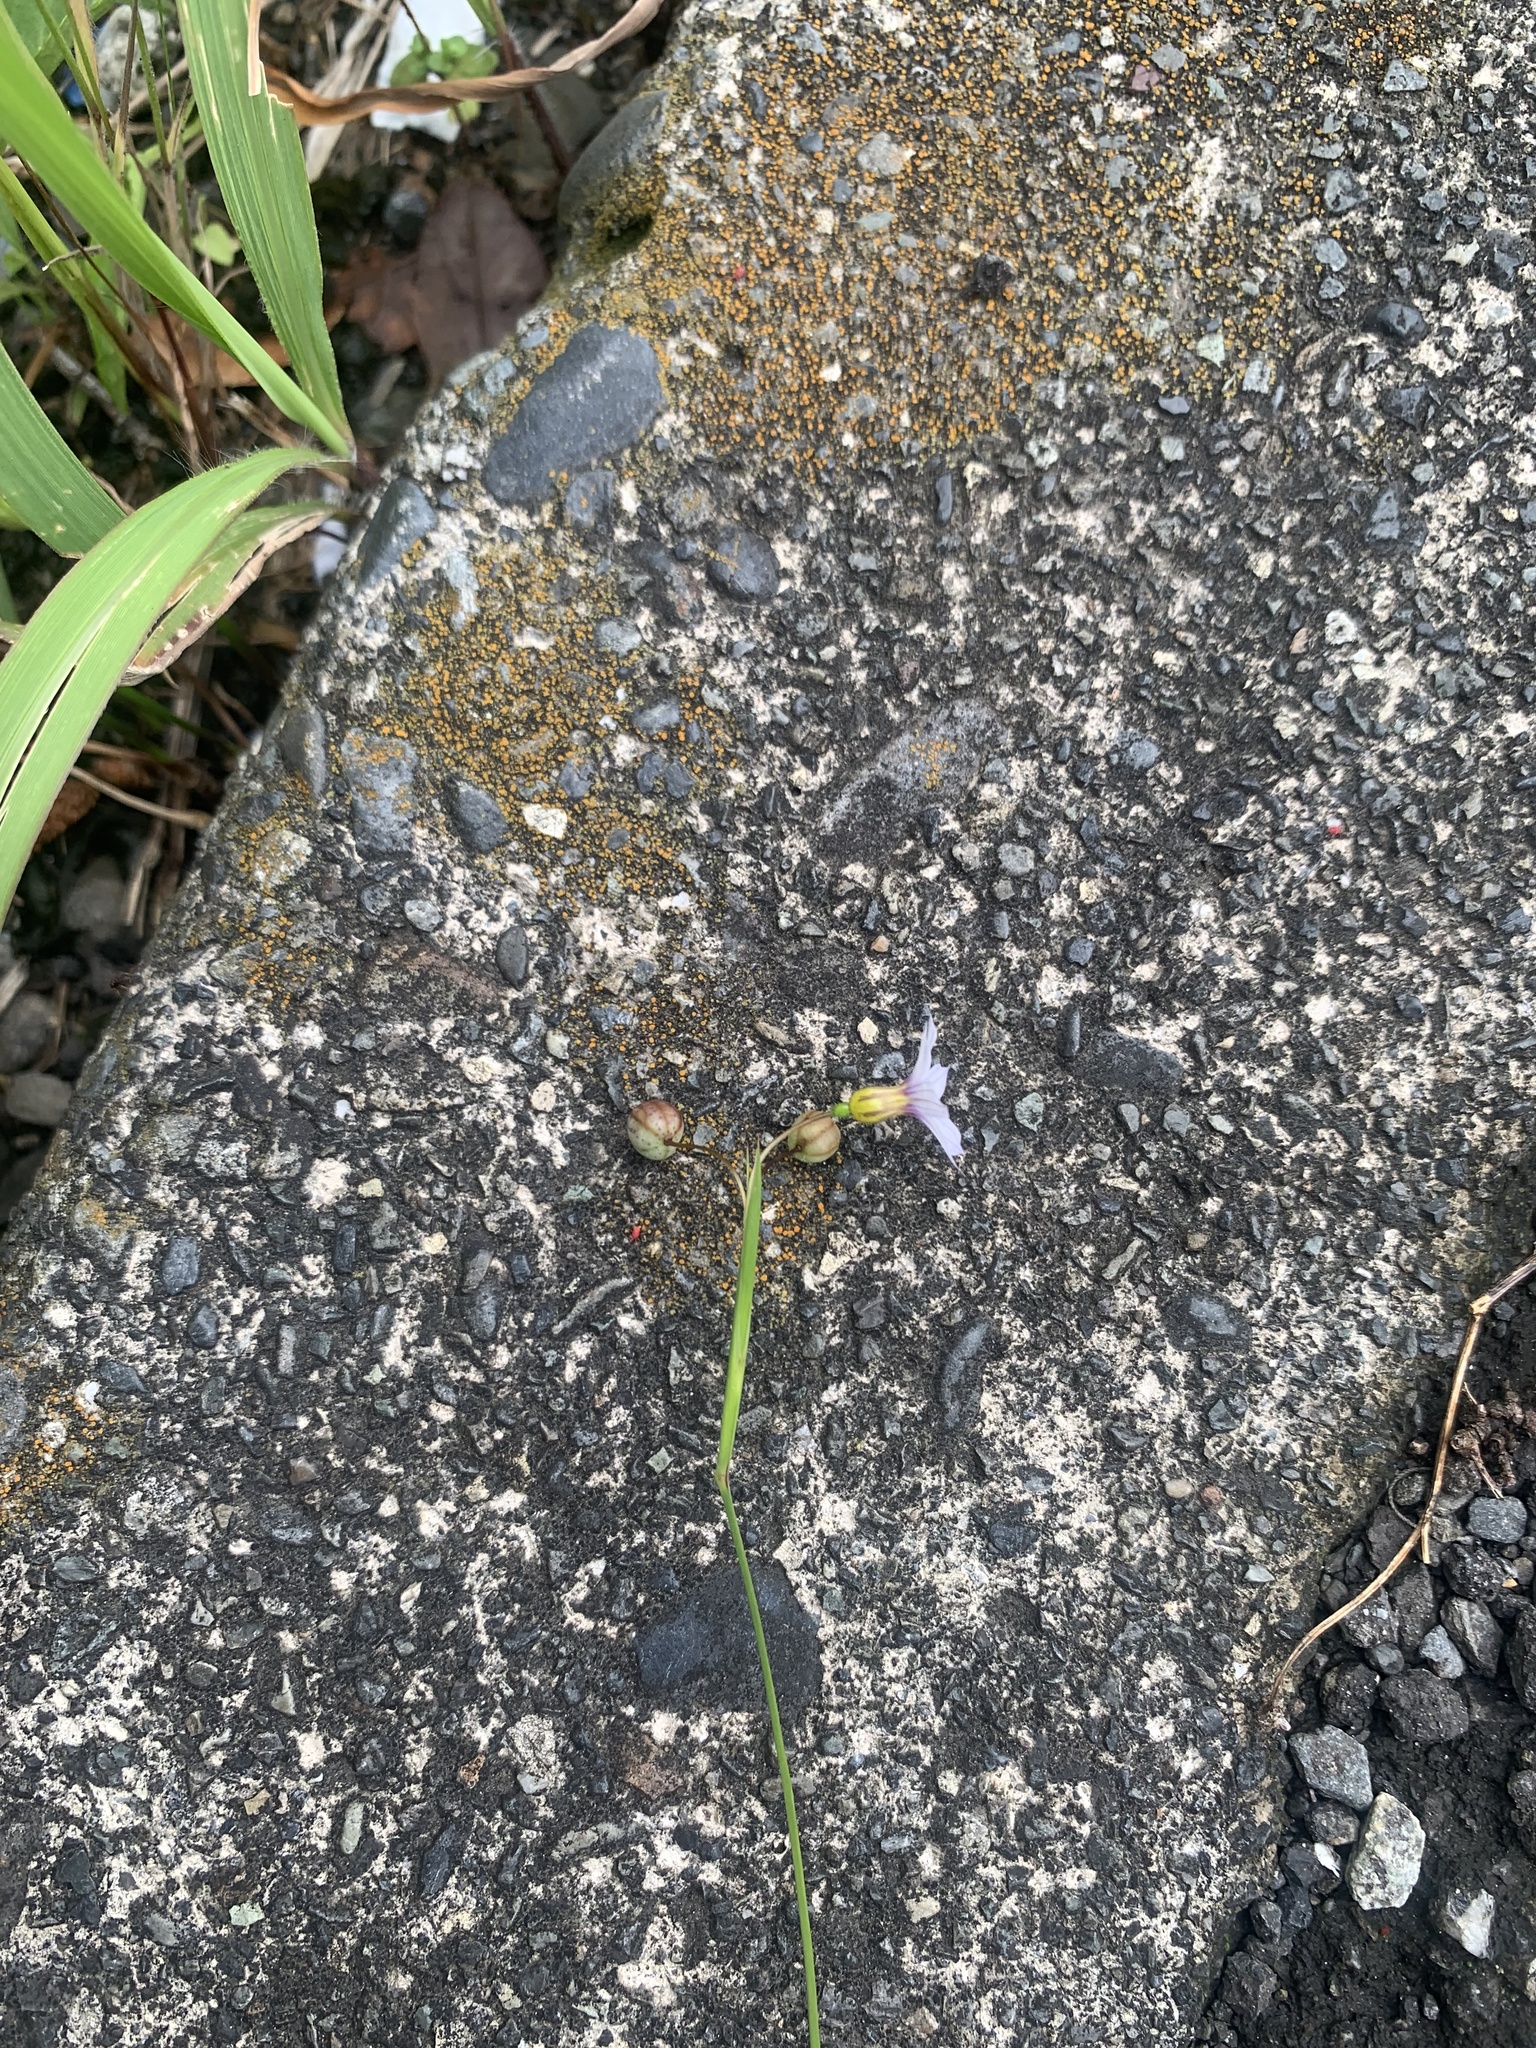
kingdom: Plantae
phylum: Tracheophyta
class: Liliopsida
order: Asparagales
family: Iridaceae
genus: Sisyrinchium
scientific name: Sisyrinchium micranthum
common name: Bermuda pigroot
